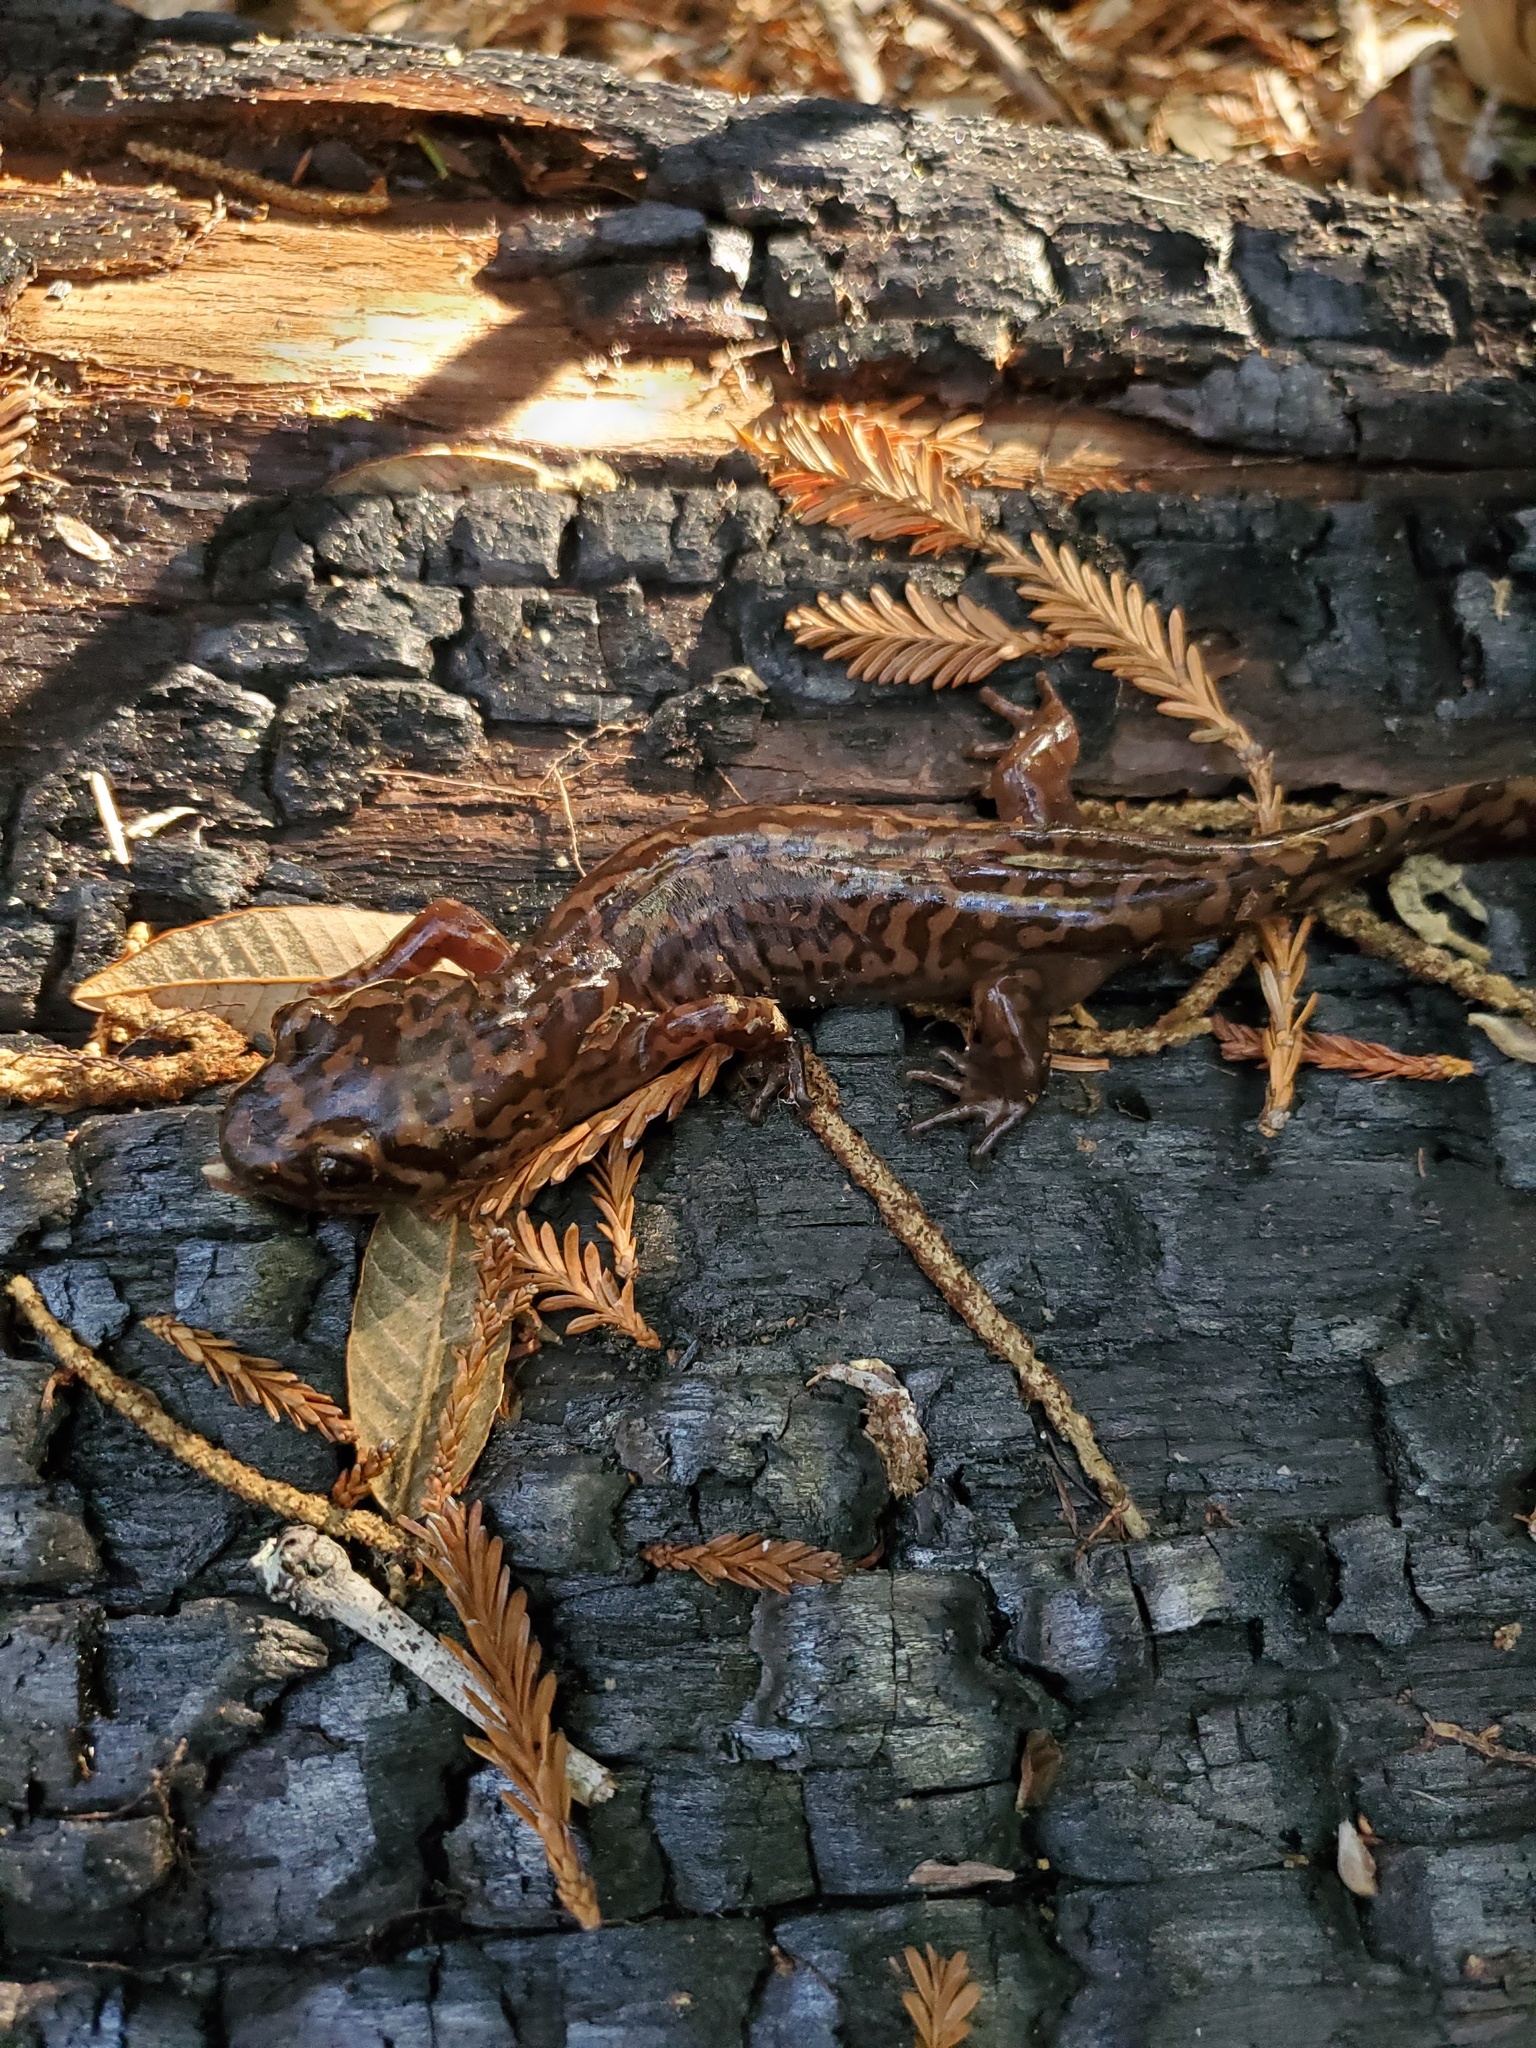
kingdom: Animalia
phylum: Chordata
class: Amphibia
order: Caudata
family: Ambystomatidae
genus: Dicamptodon
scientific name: Dicamptodon ensatus
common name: California giant salamander
